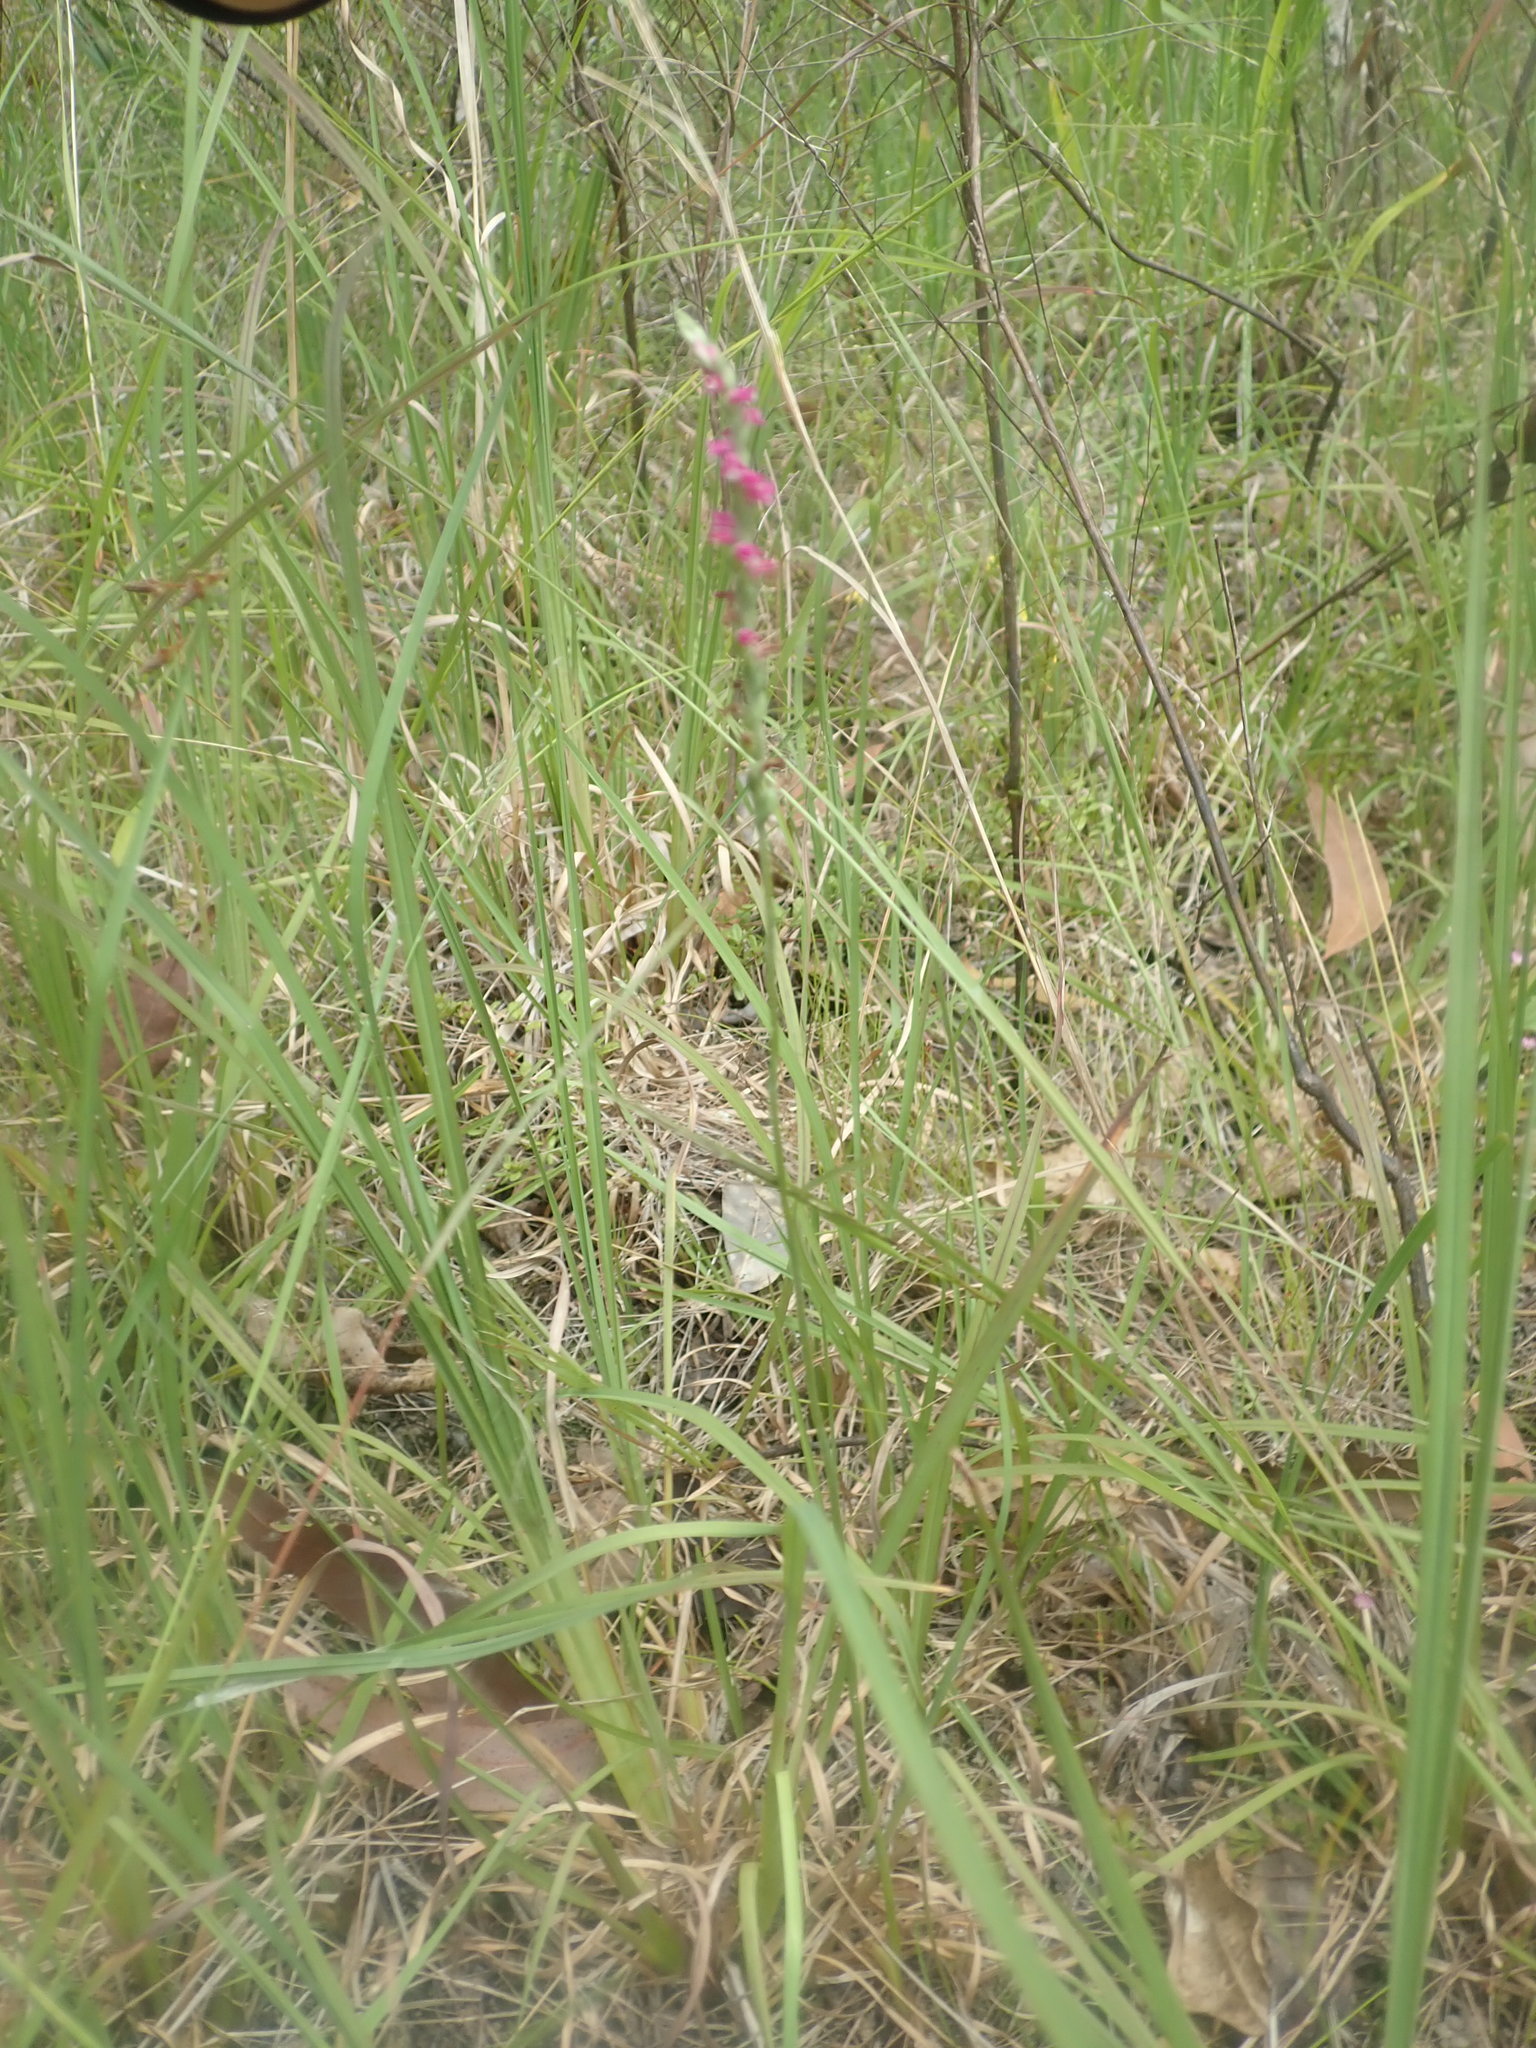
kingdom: Plantae
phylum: Tracheophyta
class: Liliopsida
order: Asparagales
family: Orchidaceae
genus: Spiranthes
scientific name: Spiranthes australis
